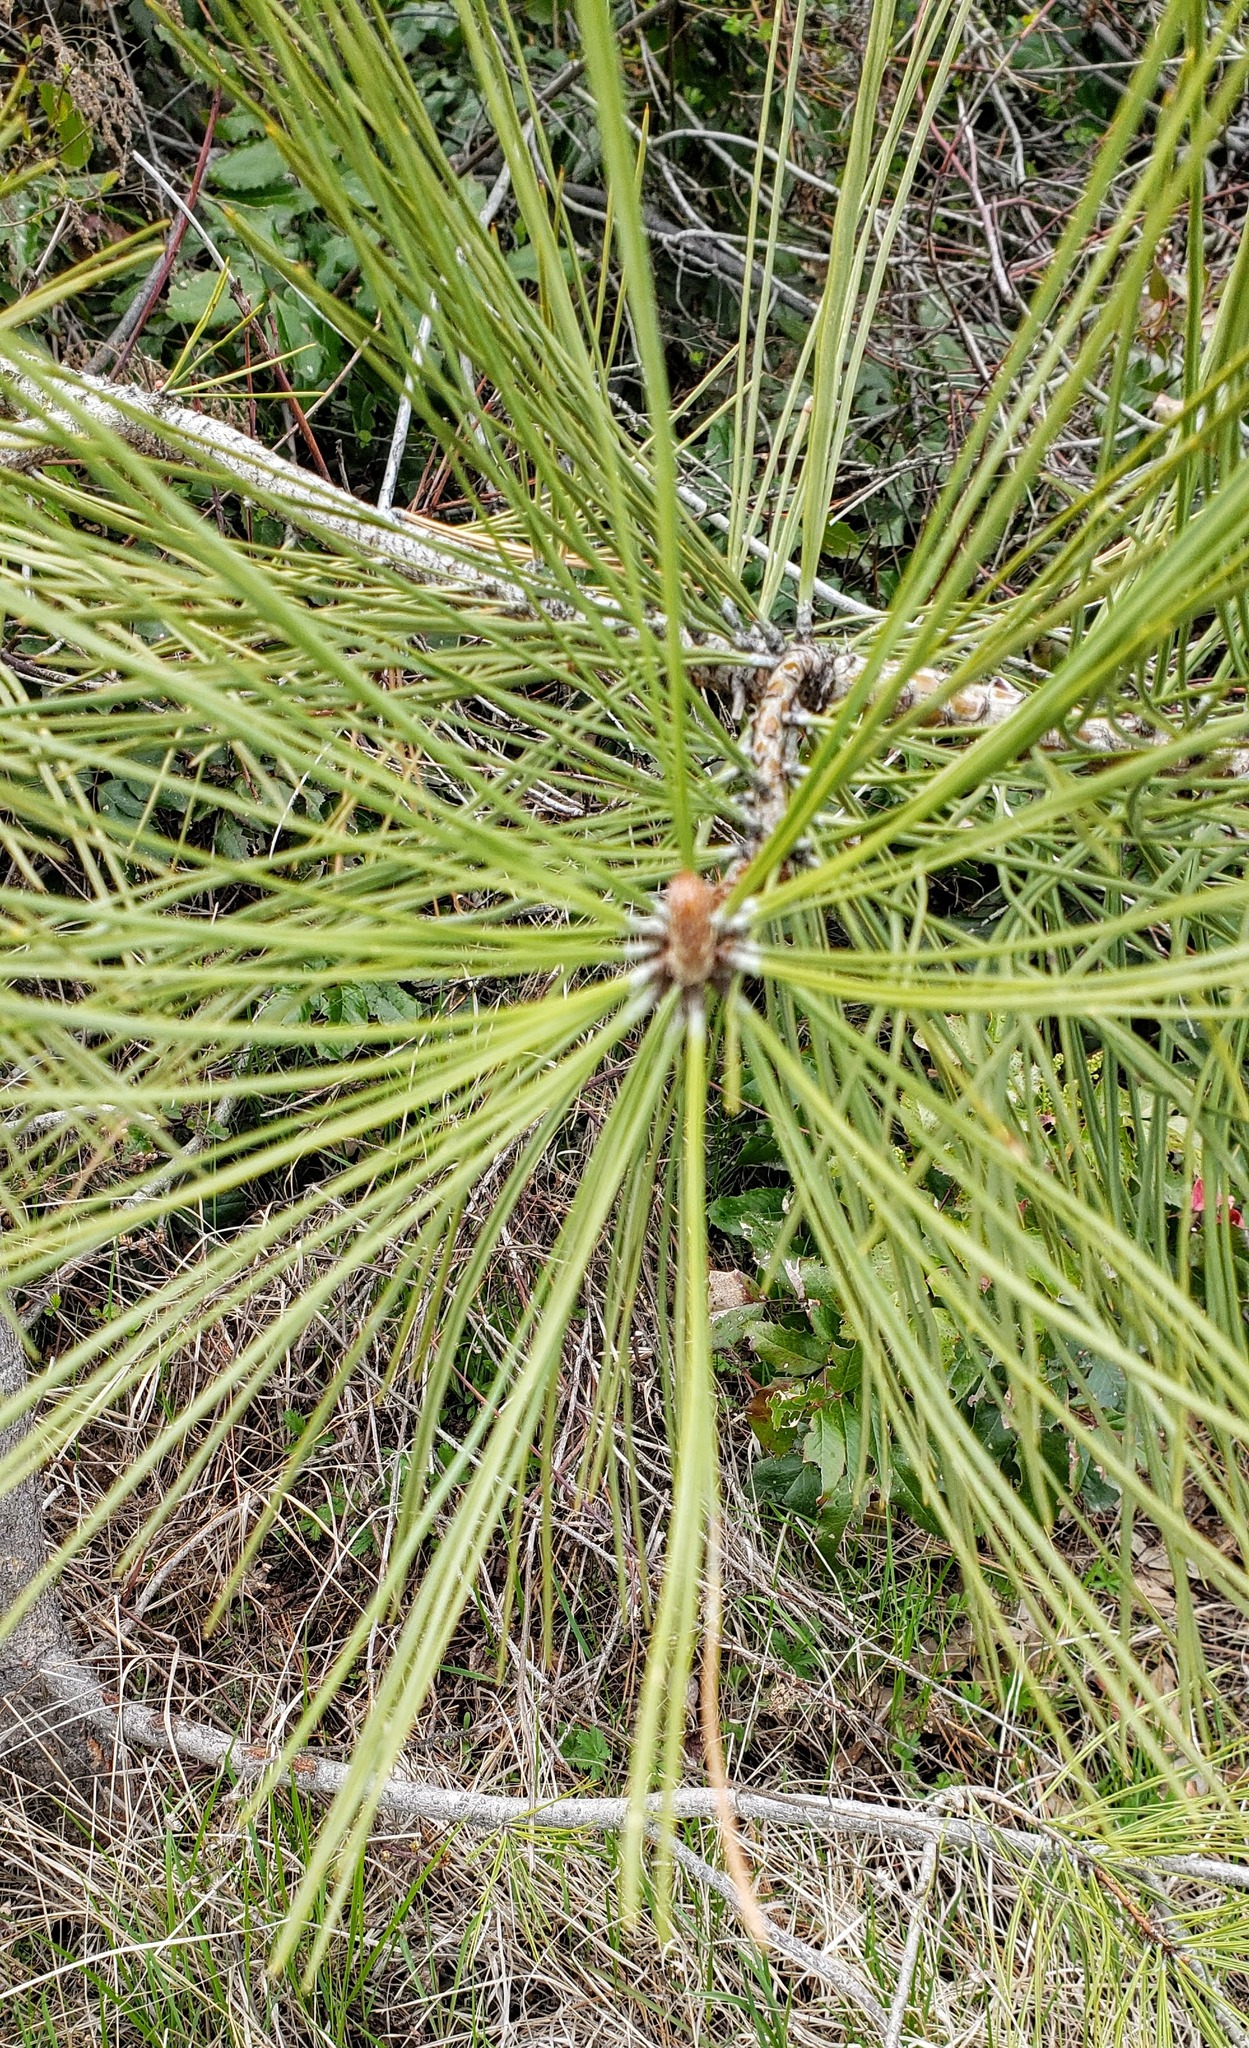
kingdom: Plantae
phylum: Tracheophyta
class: Pinopsida
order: Pinales
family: Pinaceae
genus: Pinus
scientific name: Pinus ponderosa
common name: Western yellow-pine
